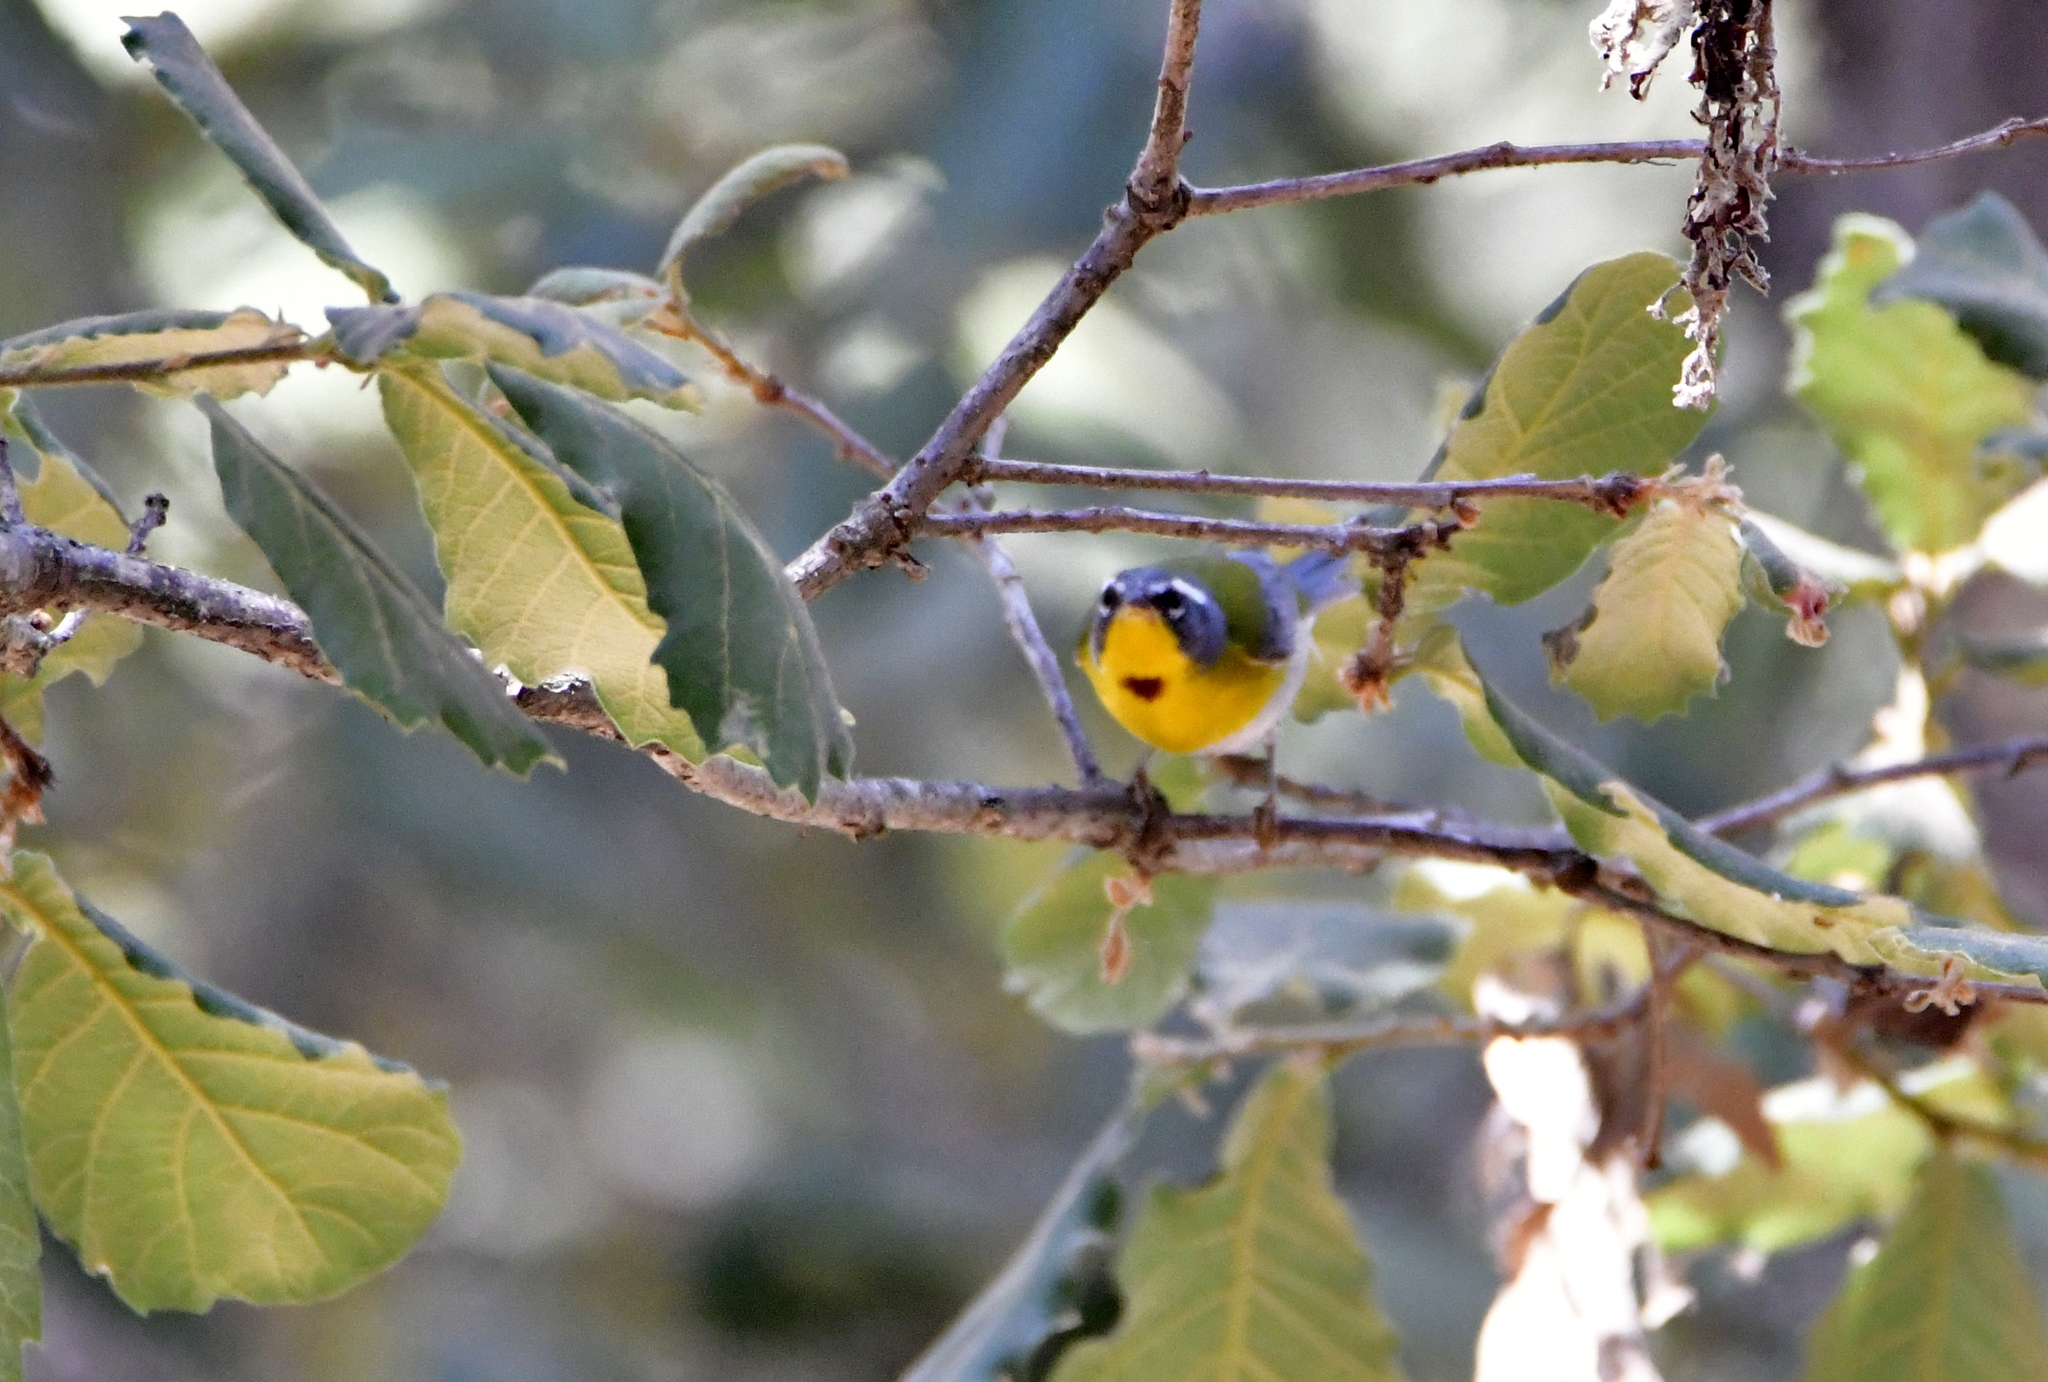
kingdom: Animalia
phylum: Chordata
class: Aves
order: Passeriformes
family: Parulidae
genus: Oreothlypis
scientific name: Oreothlypis superciliosa
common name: Crescent-chested warbler
